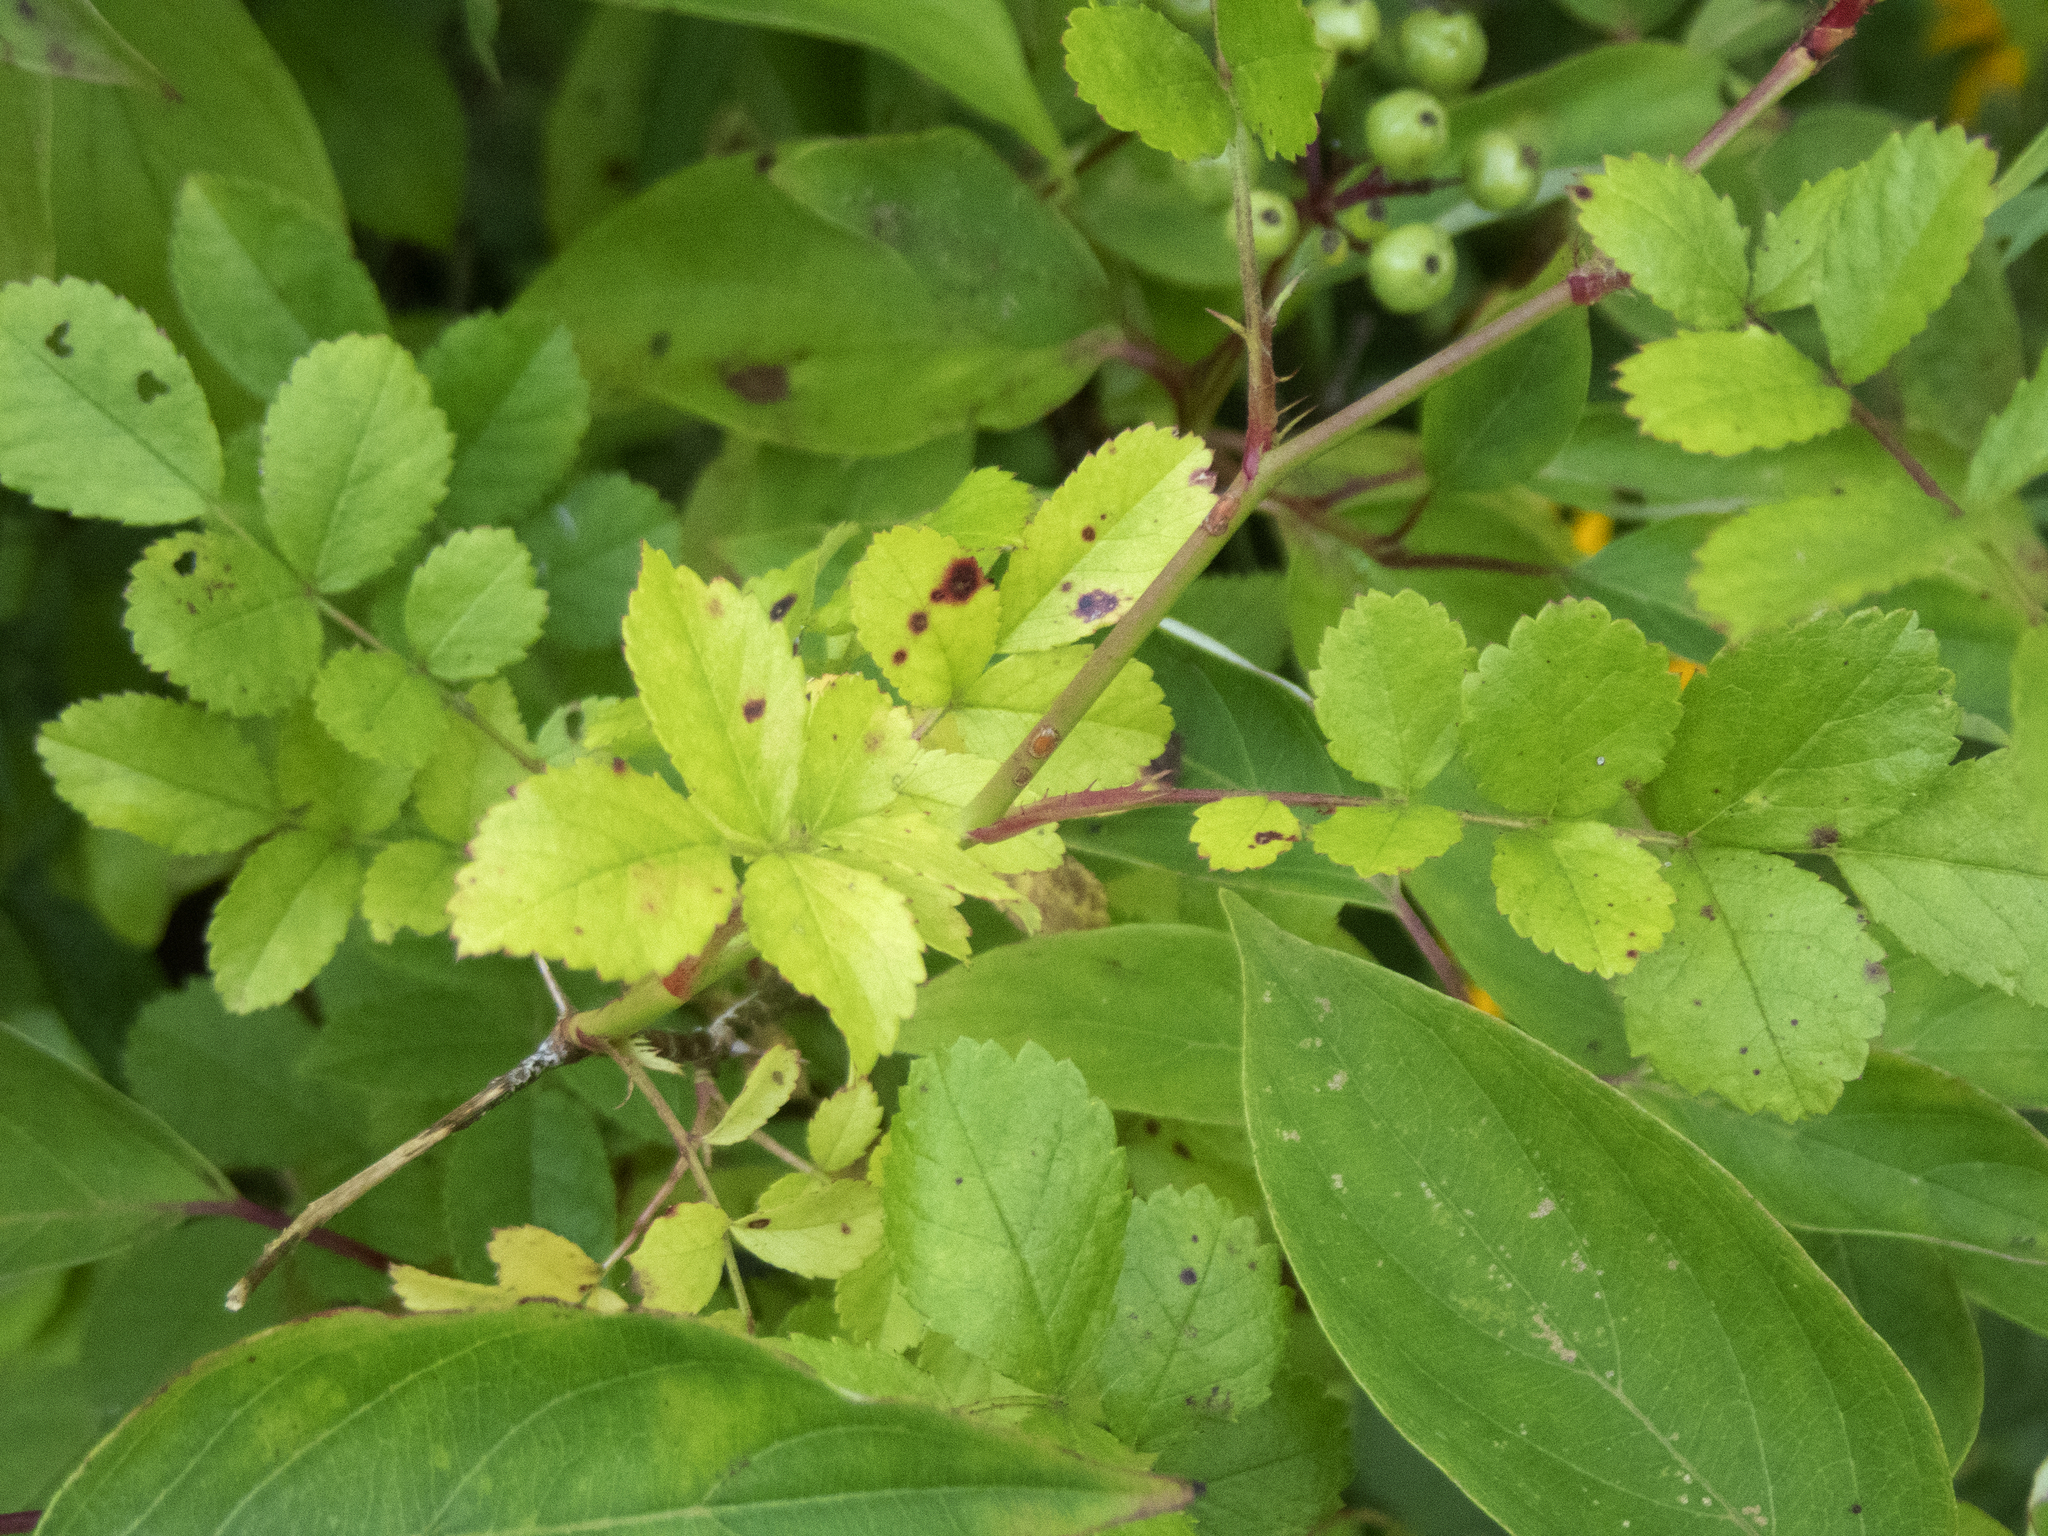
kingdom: Plantae
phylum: Tracheophyta
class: Magnoliopsida
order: Rosales
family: Rosaceae
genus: Rosa
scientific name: Rosa multiflora
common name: Multiflora rose
